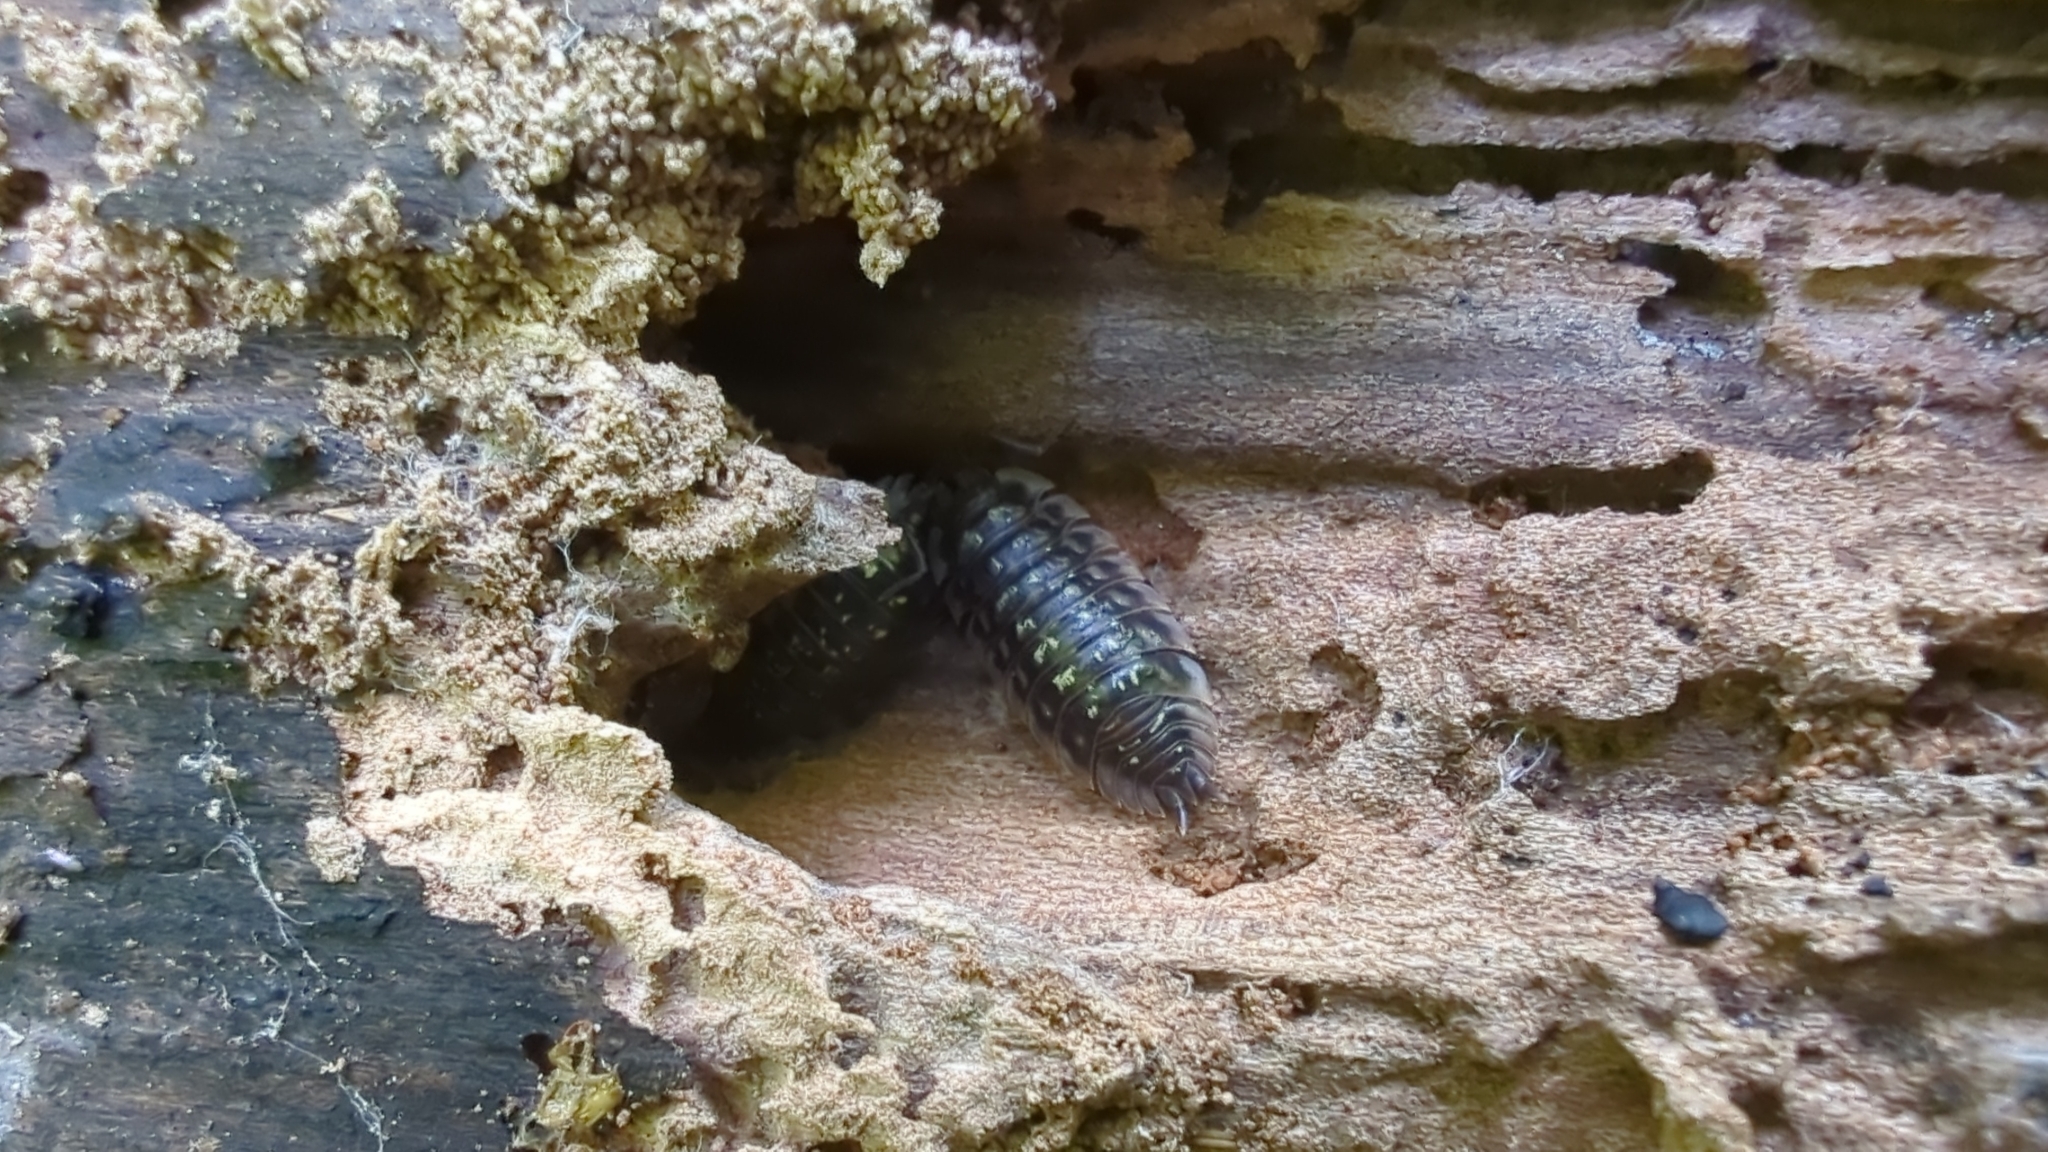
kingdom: Animalia
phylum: Arthropoda
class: Malacostraca
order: Isopoda
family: Oniscidae
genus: Oniscus
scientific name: Oniscus asellus
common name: Common shiny woodlouse
